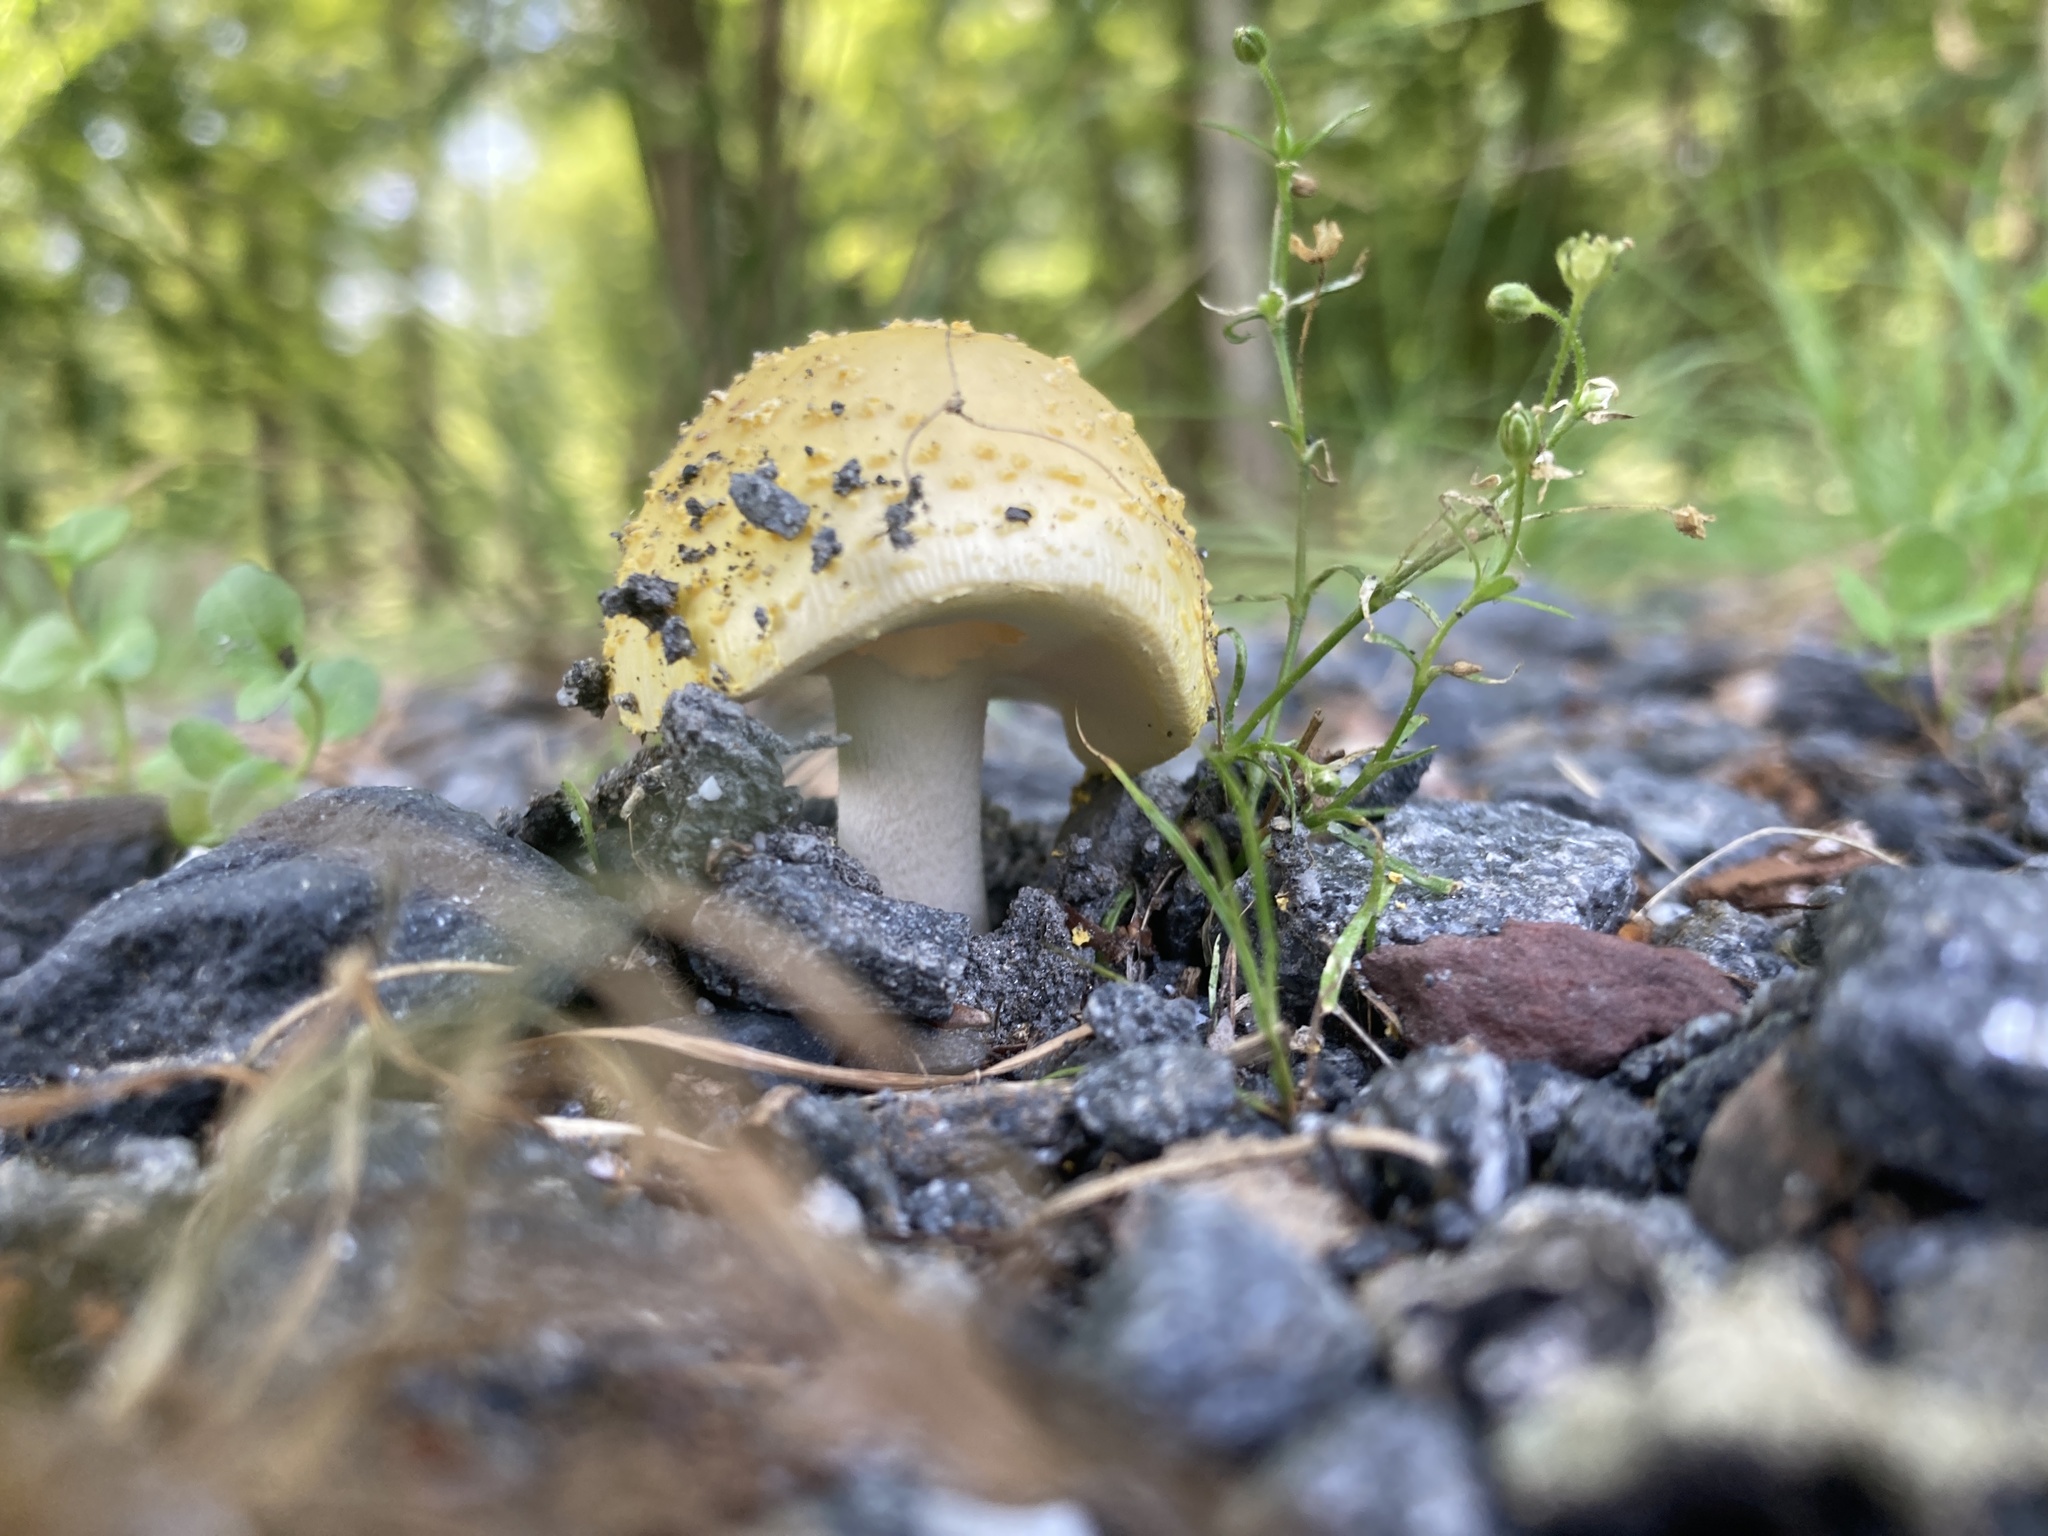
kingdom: Fungi
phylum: Basidiomycota
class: Agaricomycetes
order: Agaricales
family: Amanitaceae
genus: Amanita
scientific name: Amanita flavorubens
